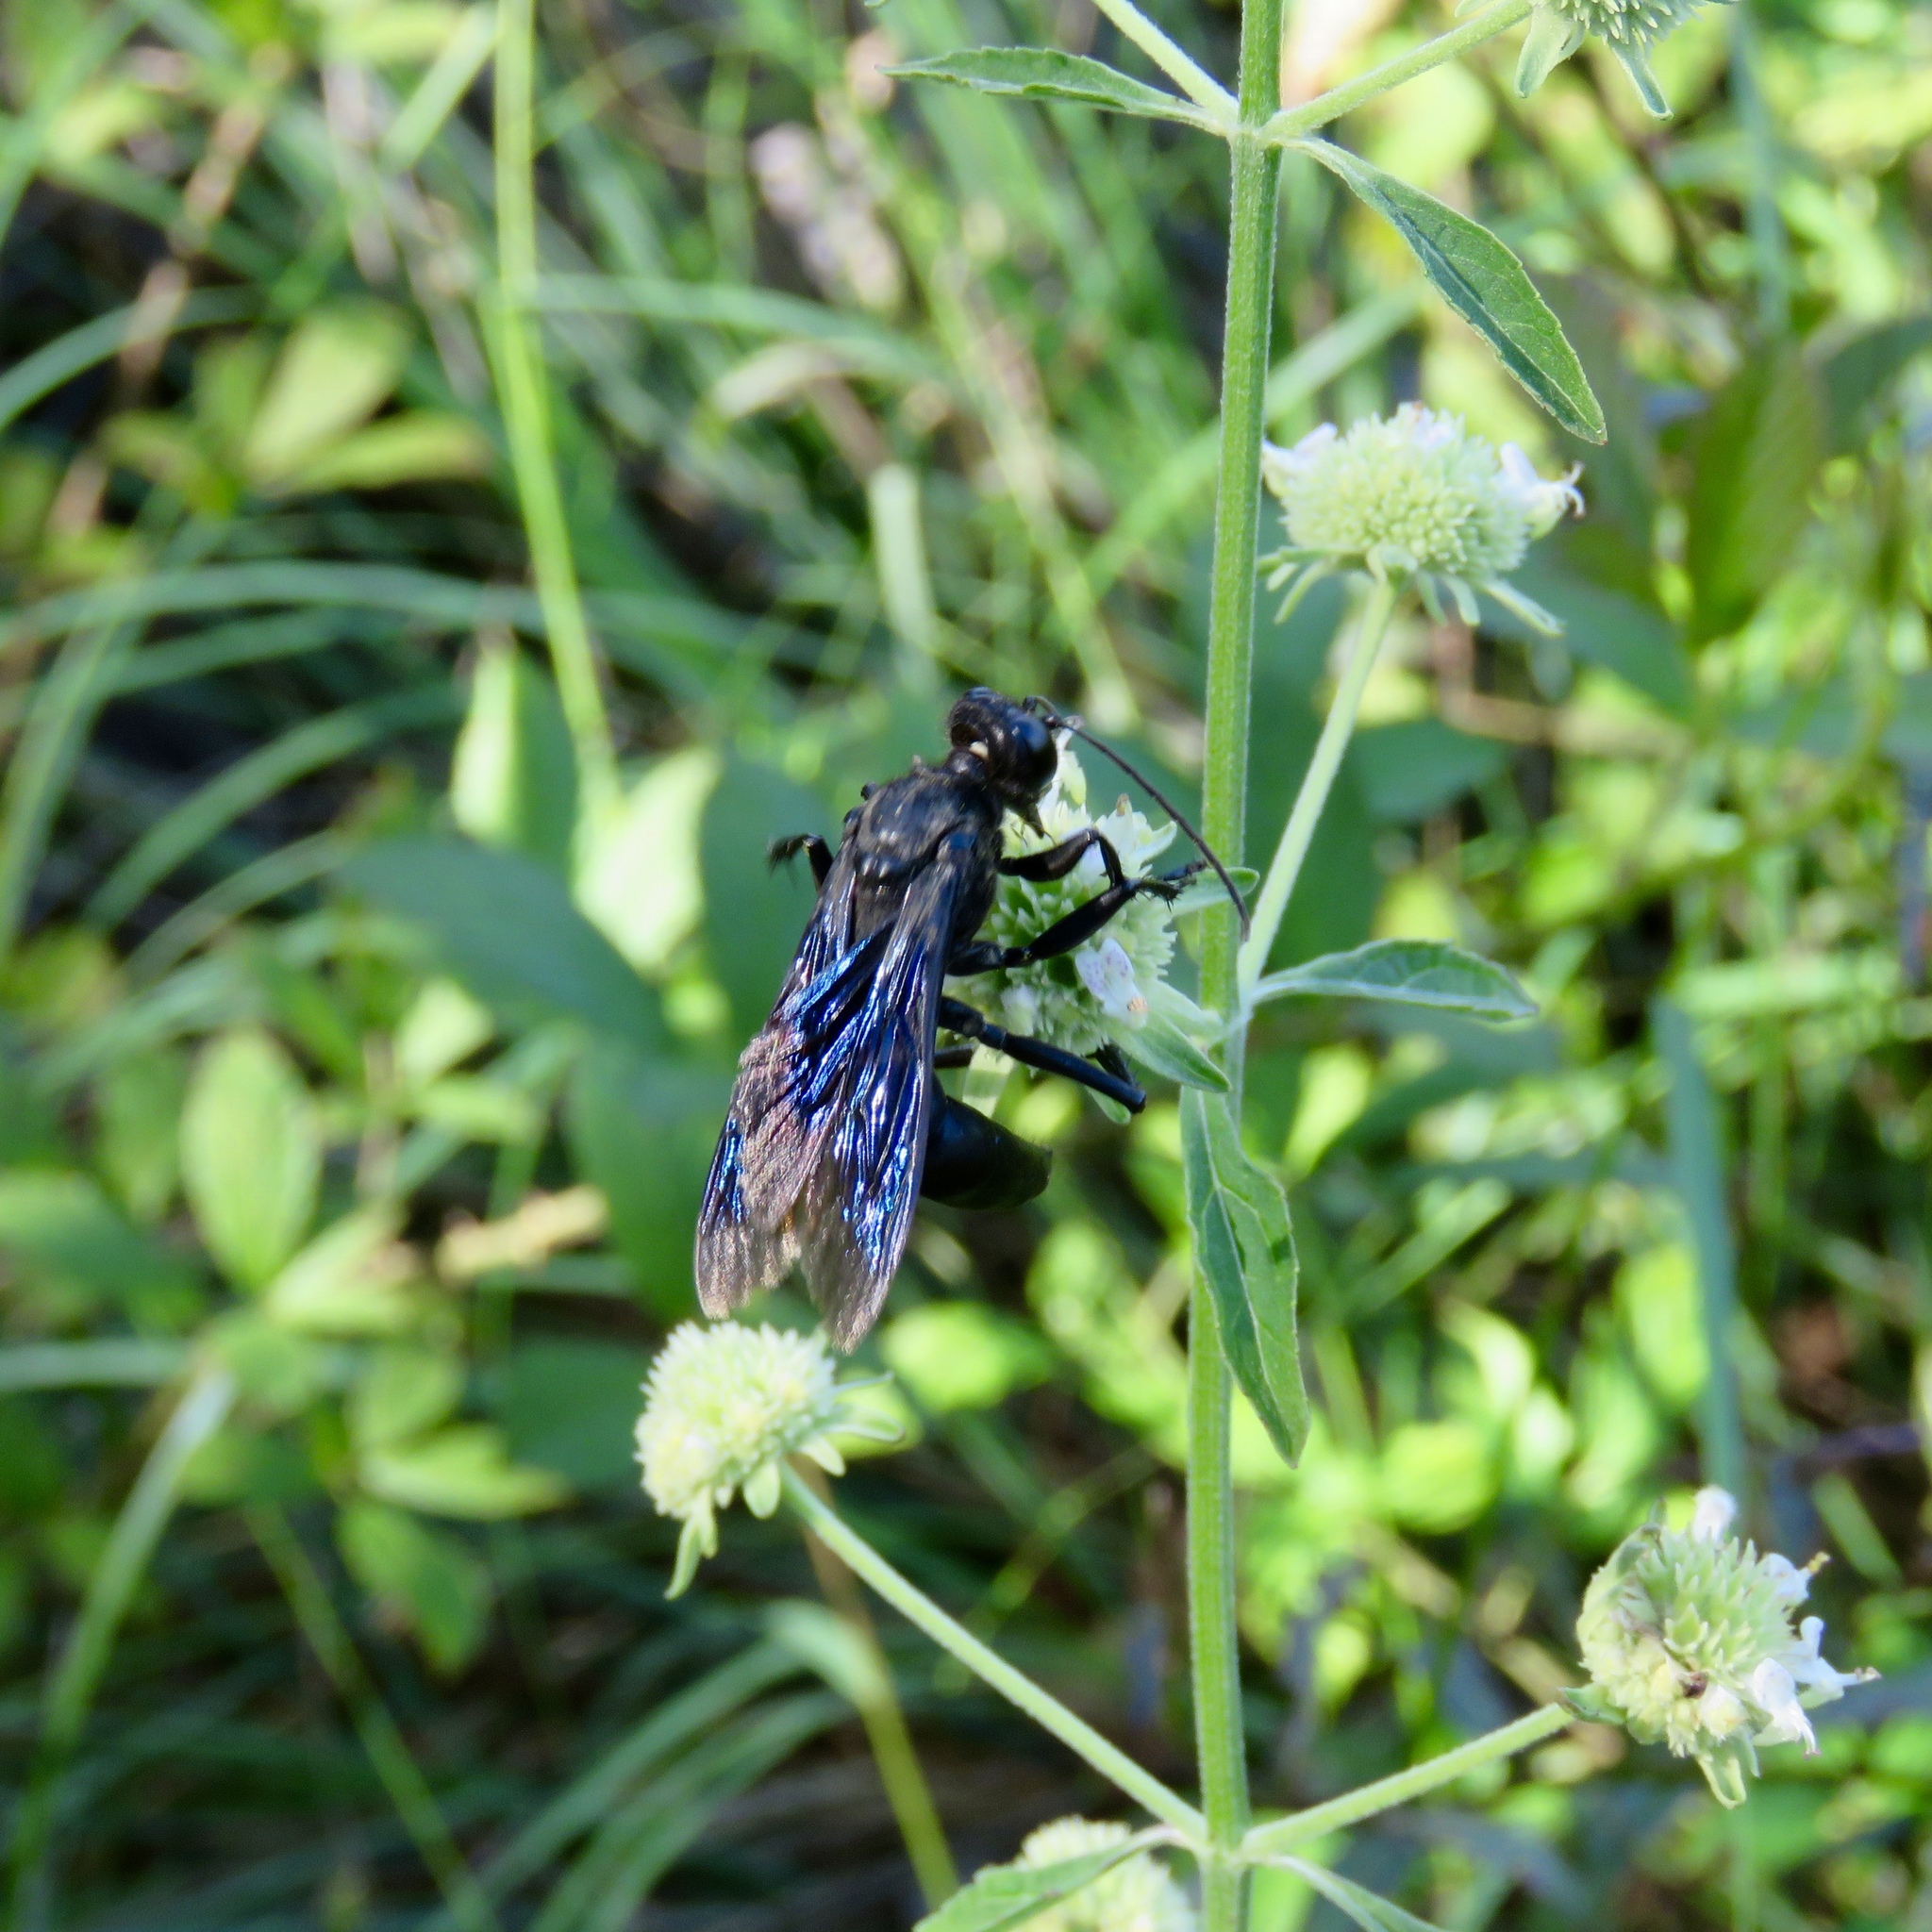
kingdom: Animalia
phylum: Arthropoda
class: Insecta
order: Hymenoptera
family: Sphecidae
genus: Sphex
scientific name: Sphex pensylvanicus
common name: Great black digger wasp
